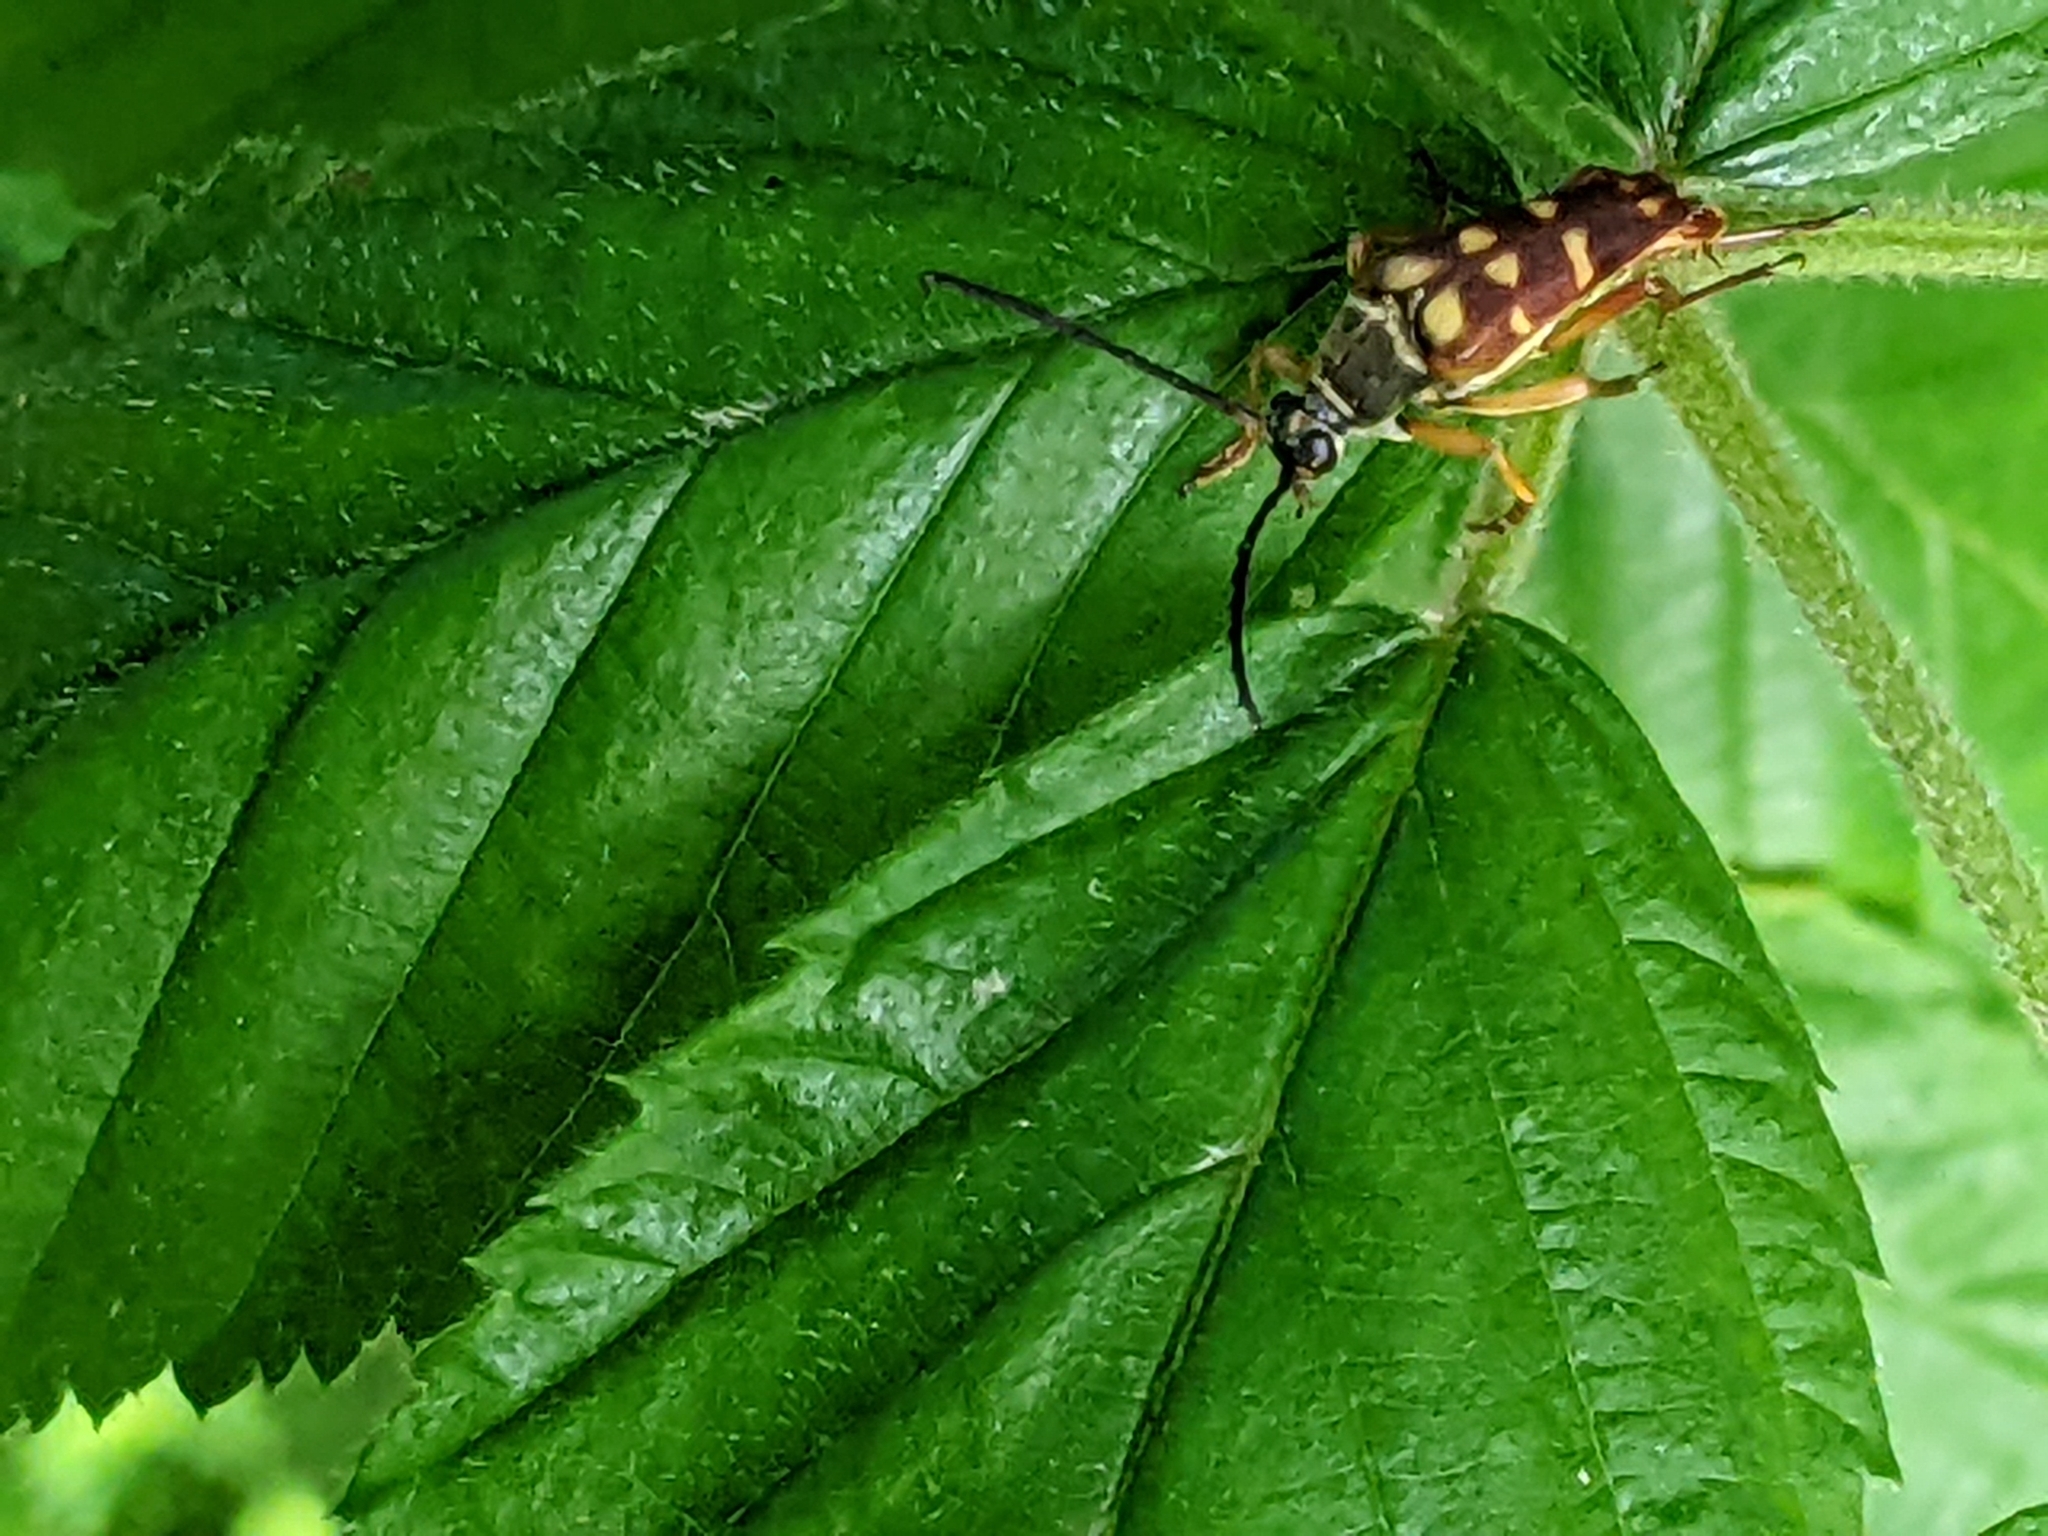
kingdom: Animalia
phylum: Arthropoda
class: Insecta
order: Coleoptera
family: Cerambycidae
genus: Typocerus
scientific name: Typocerus velutinus
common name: Banded longhorn beetle
